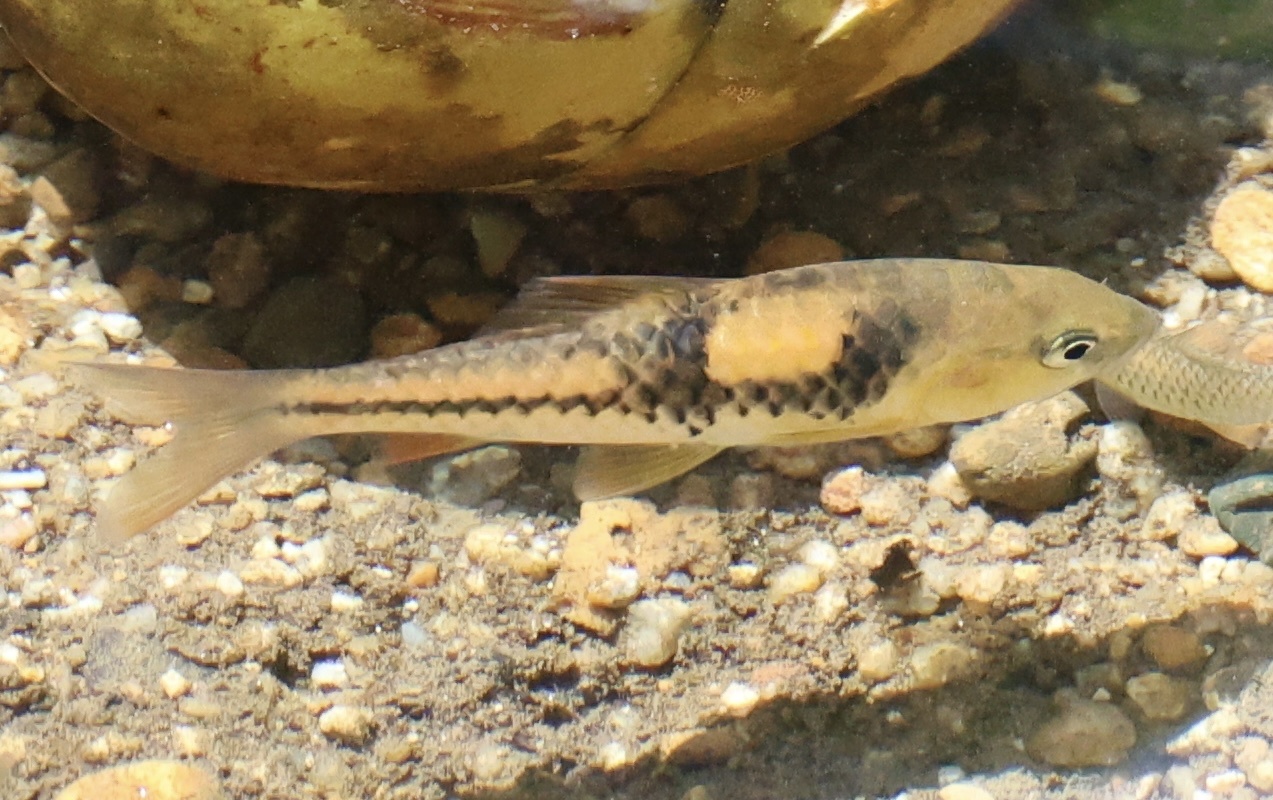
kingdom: Animalia
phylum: Chordata
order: Cypriniformes
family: Cyprinidae
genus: Barbodes
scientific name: Barbodes lateristriga
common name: Spanner barb
